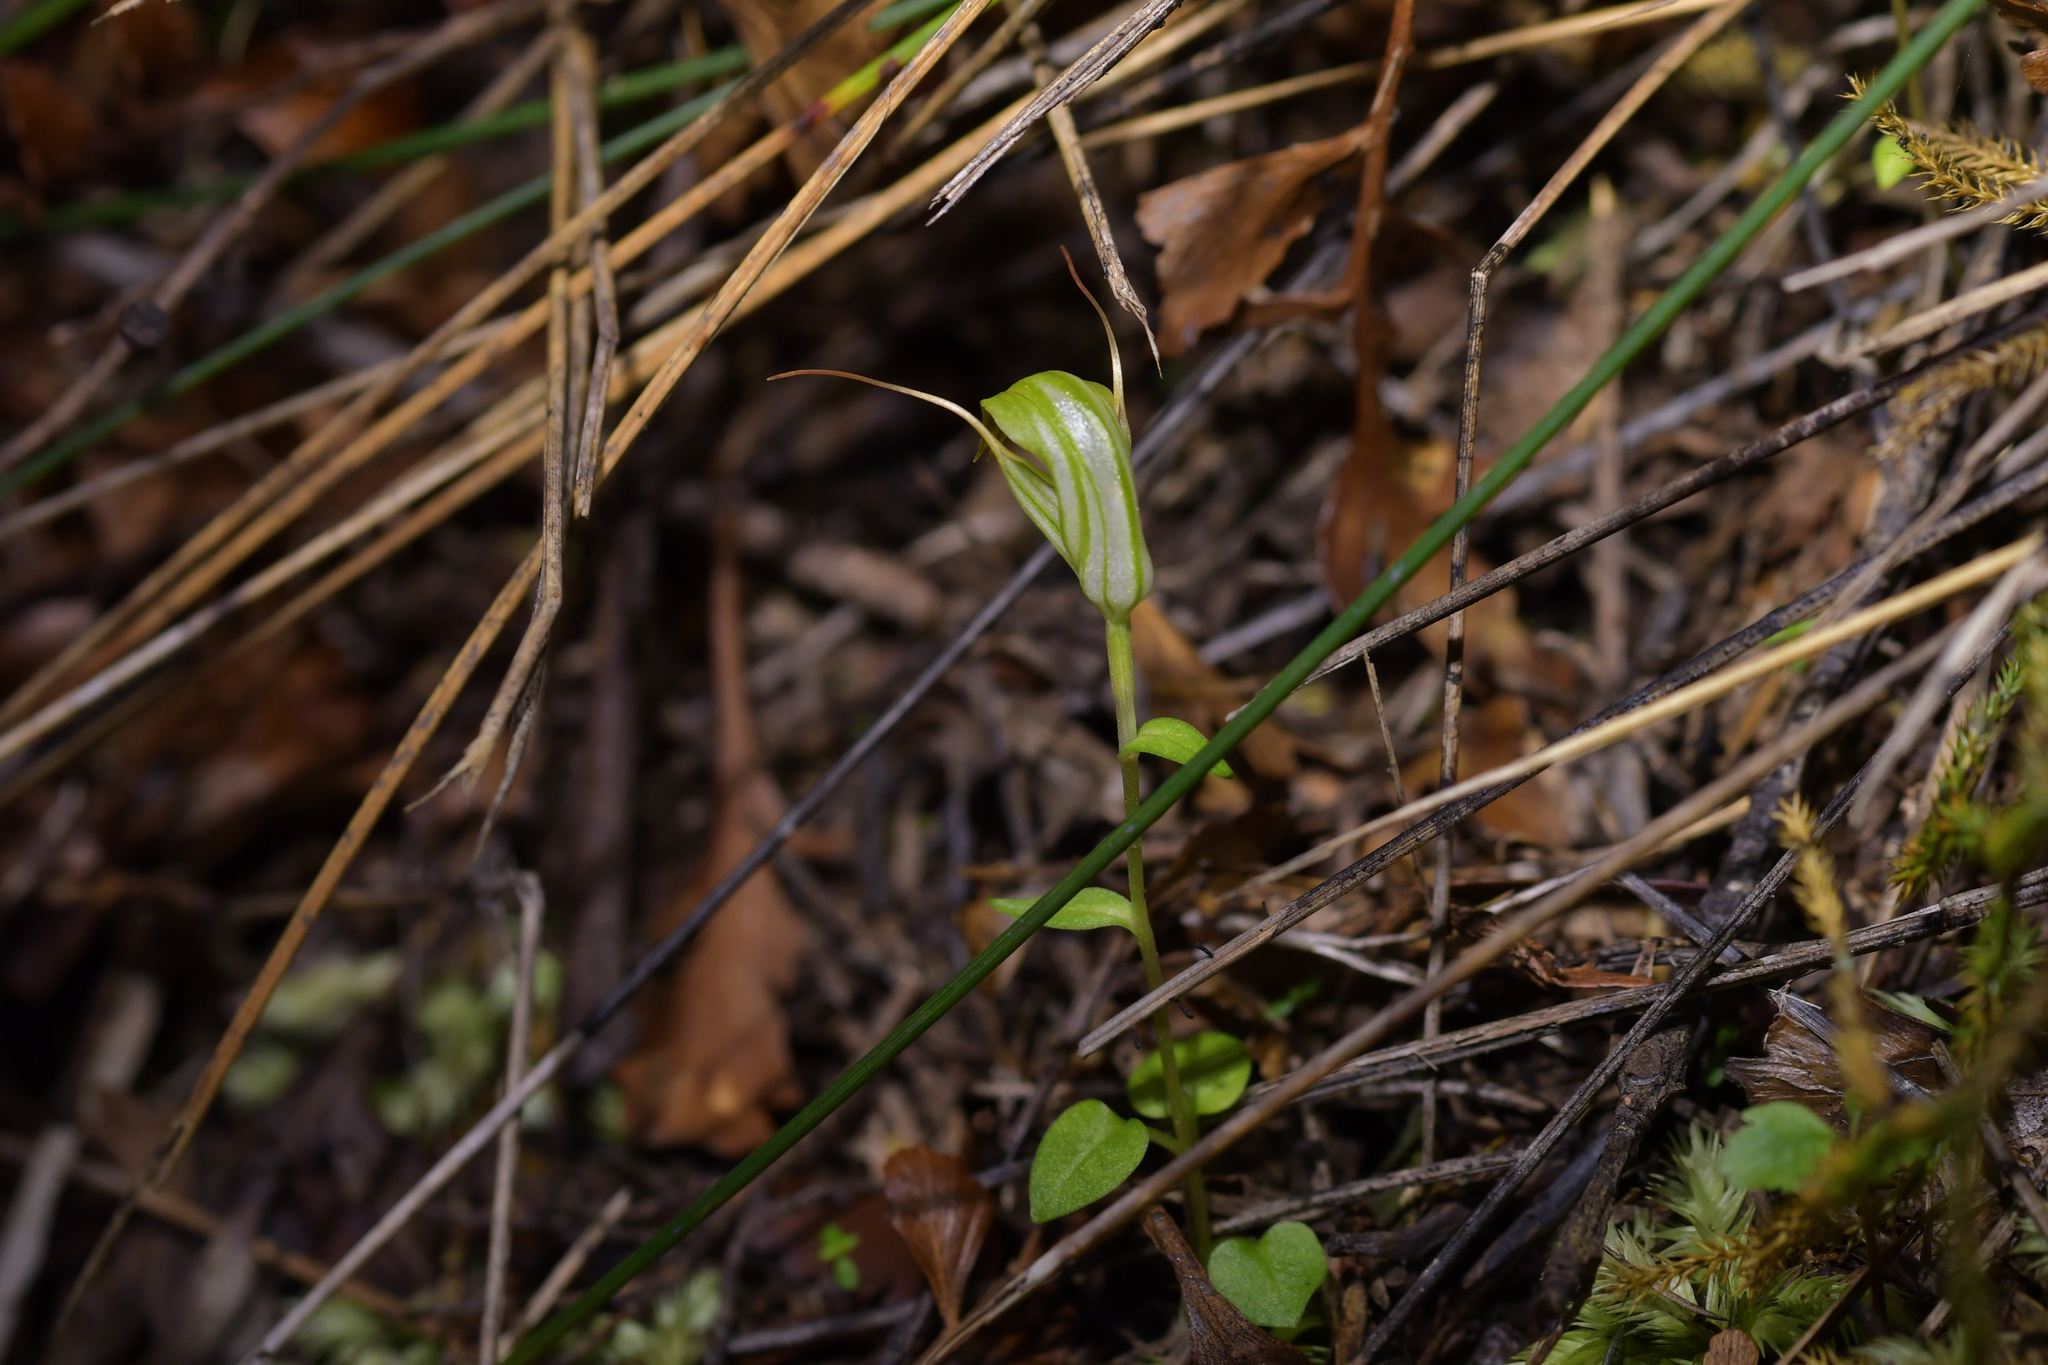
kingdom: Plantae
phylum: Tracheophyta
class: Liliopsida
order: Asparagales
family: Orchidaceae
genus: Pterostylis
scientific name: Pterostylis alobula
